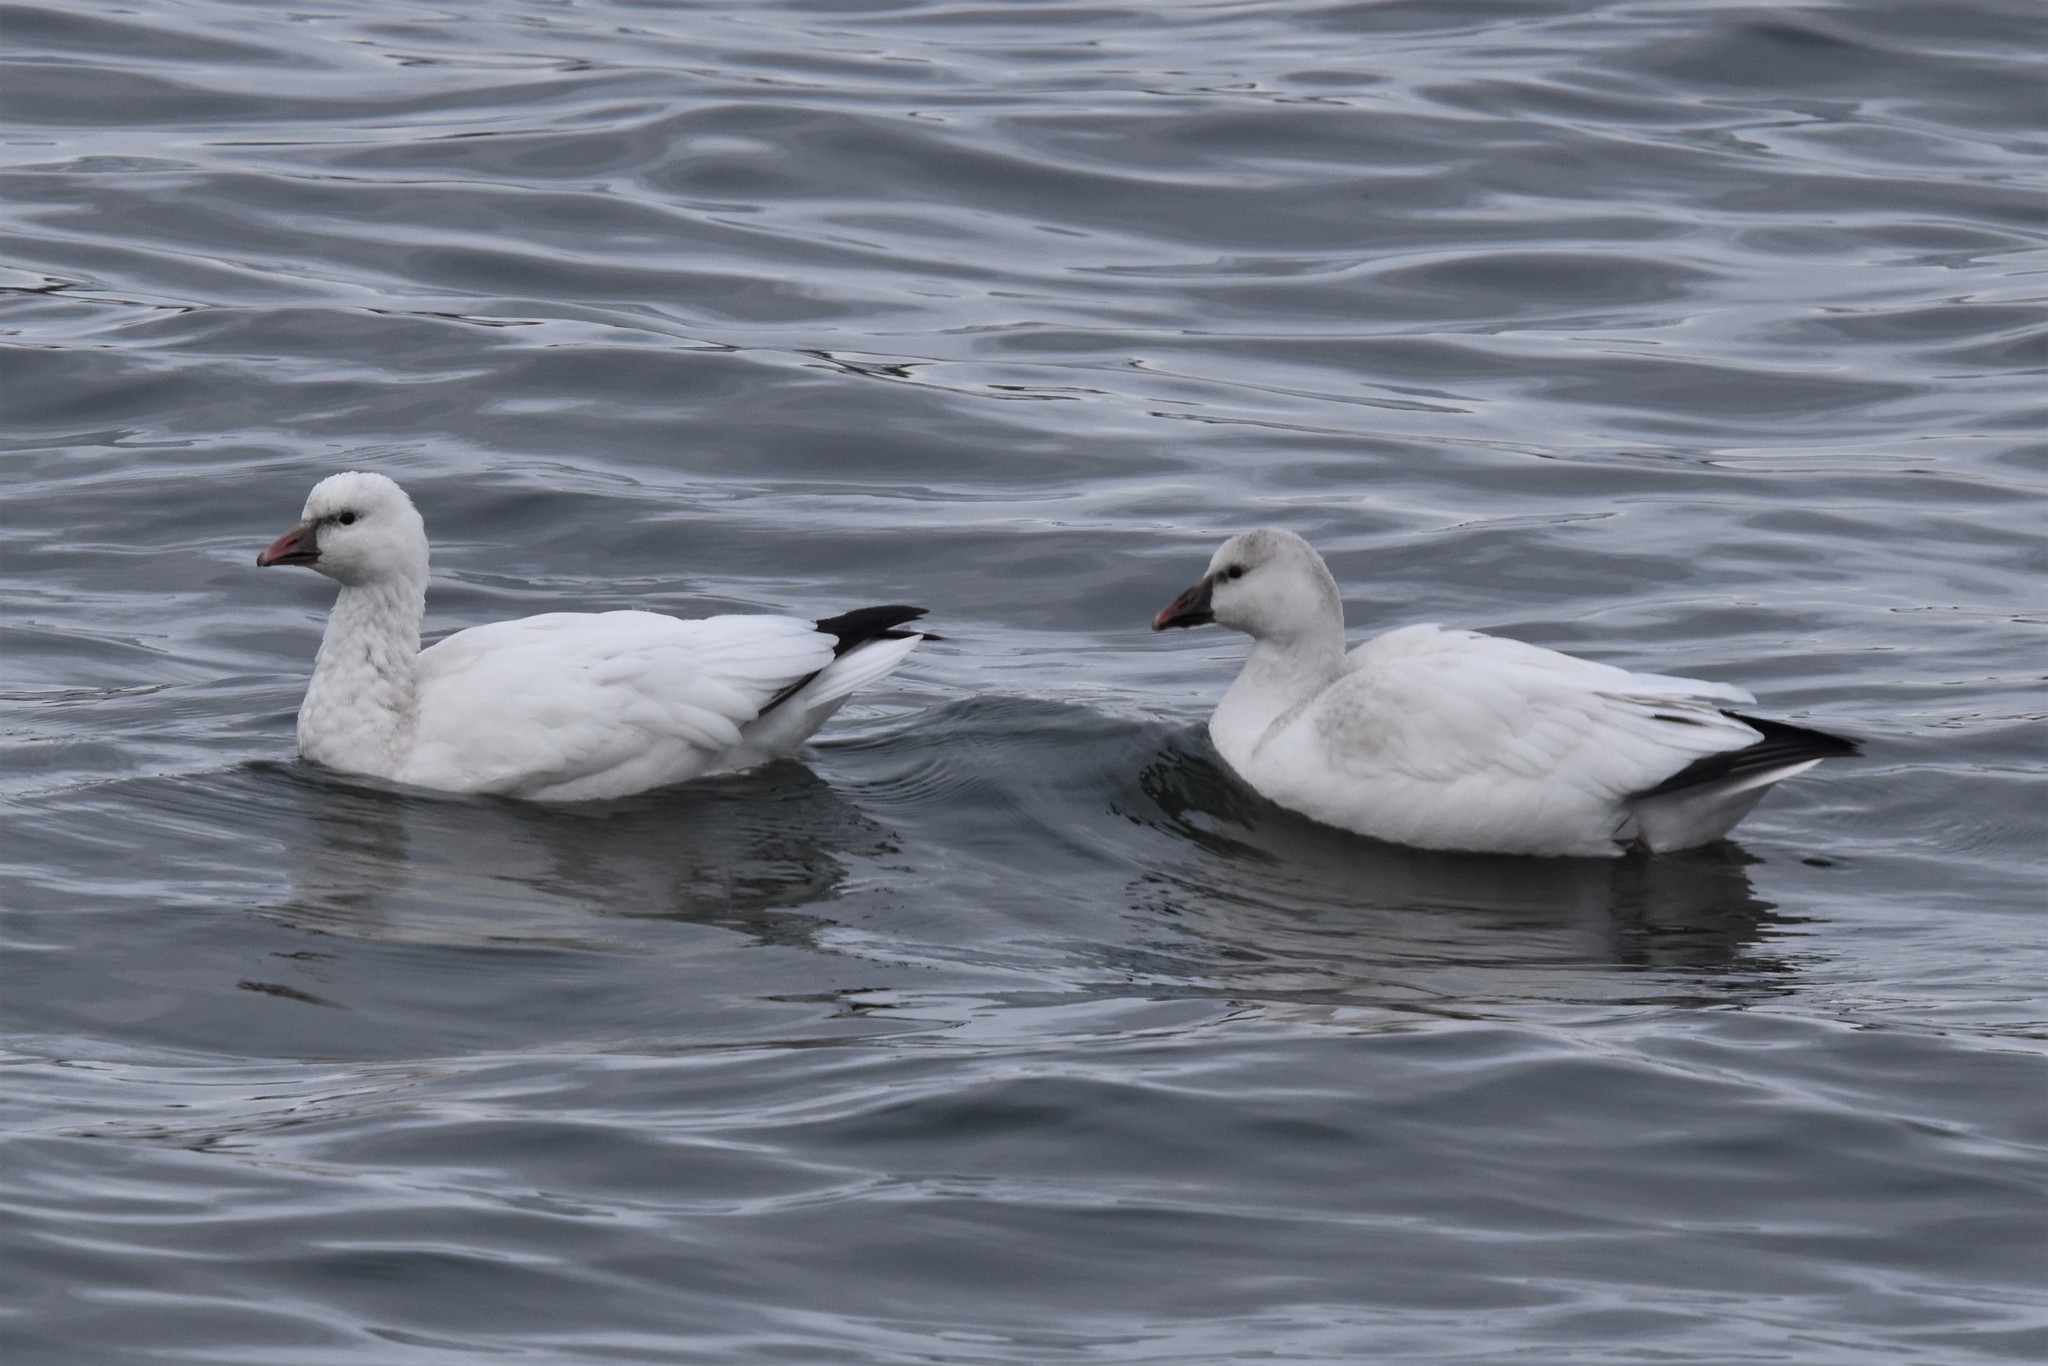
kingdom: Animalia
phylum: Chordata
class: Aves
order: Anseriformes
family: Anatidae
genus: Anser
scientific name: Anser rossii
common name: Ross's goose
